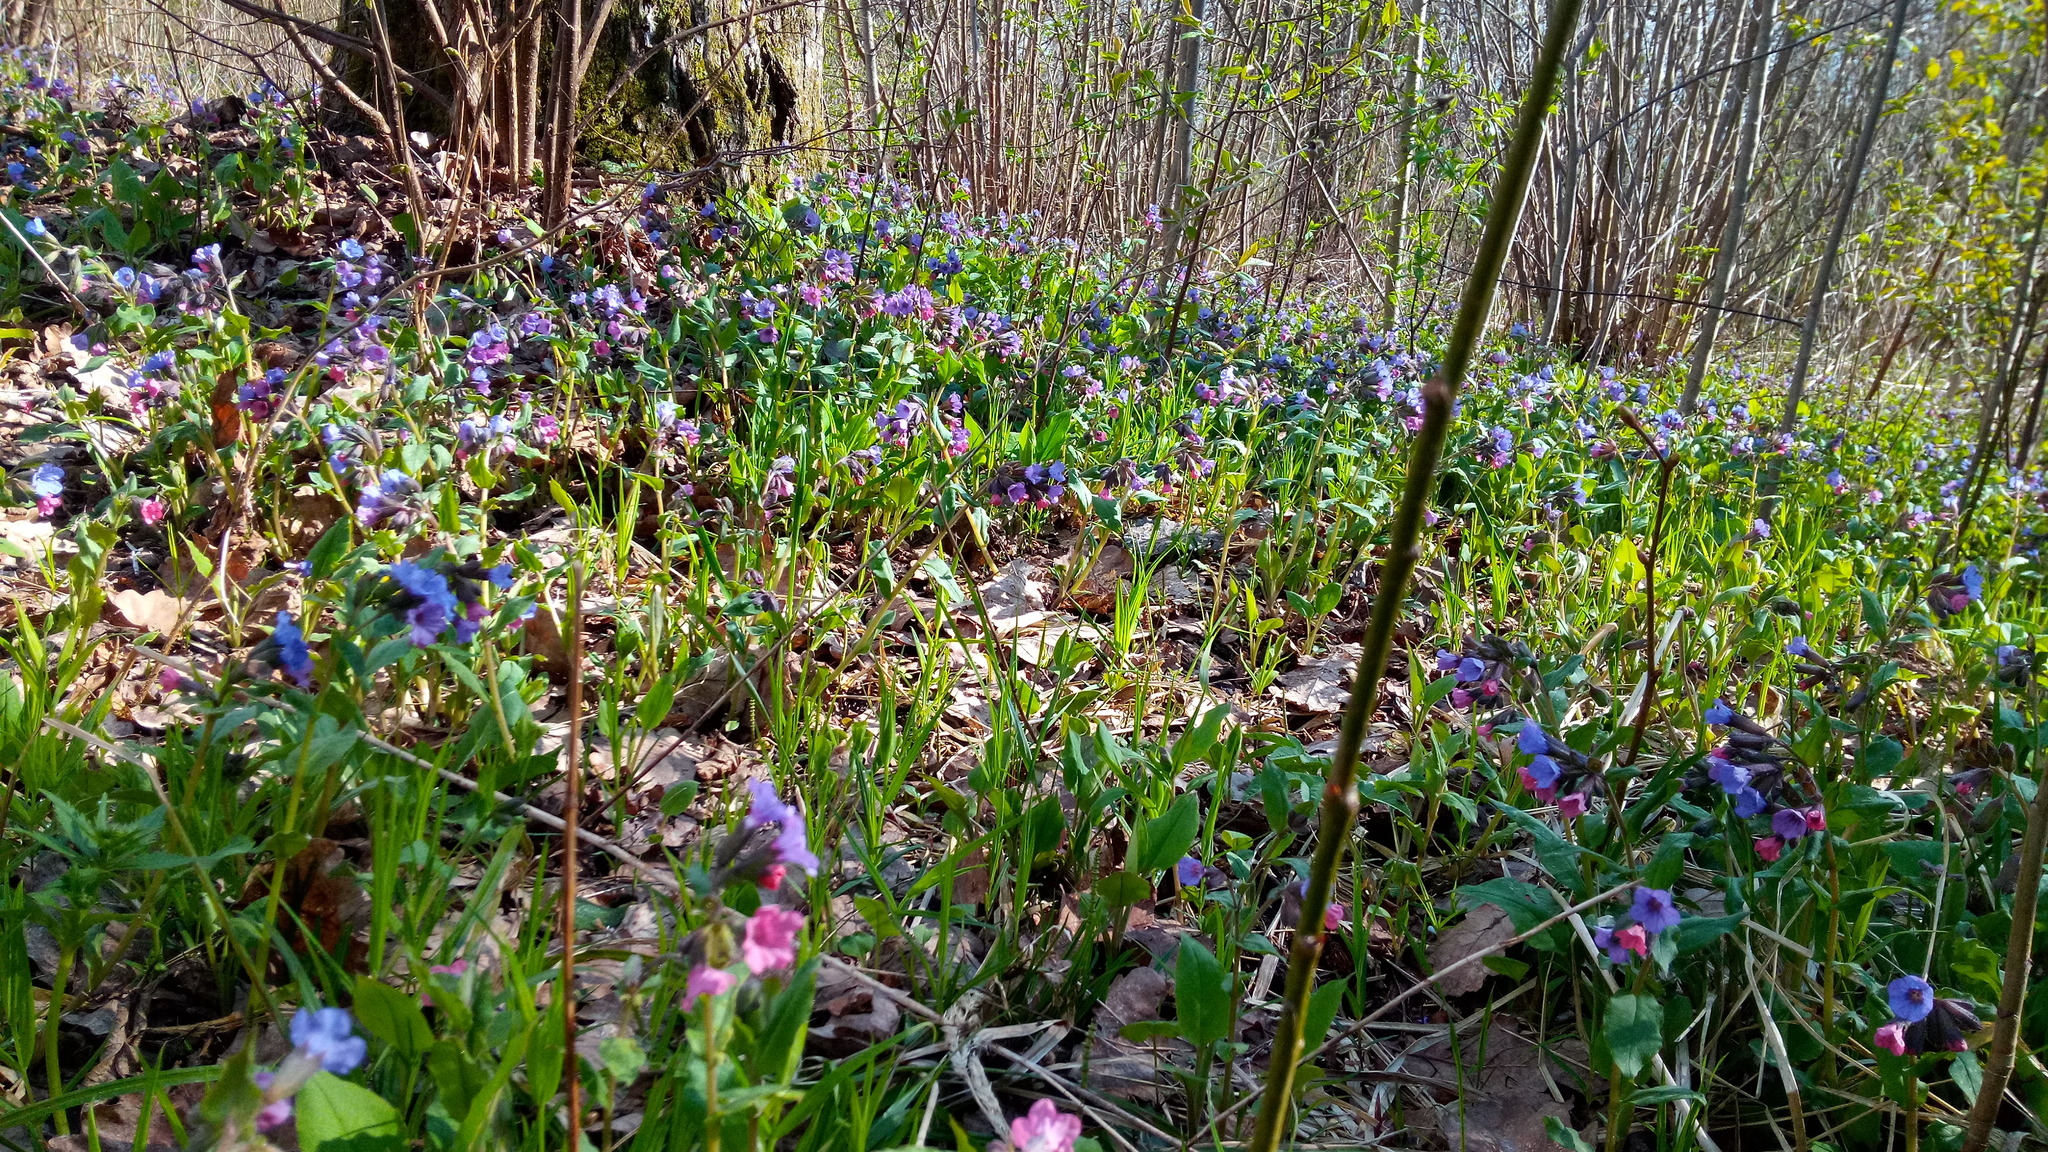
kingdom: Plantae
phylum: Tracheophyta
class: Magnoliopsida
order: Boraginales
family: Boraginaceae
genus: Pulmonaria
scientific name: Pulmonaria obscura
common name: Suffolk lungwort
